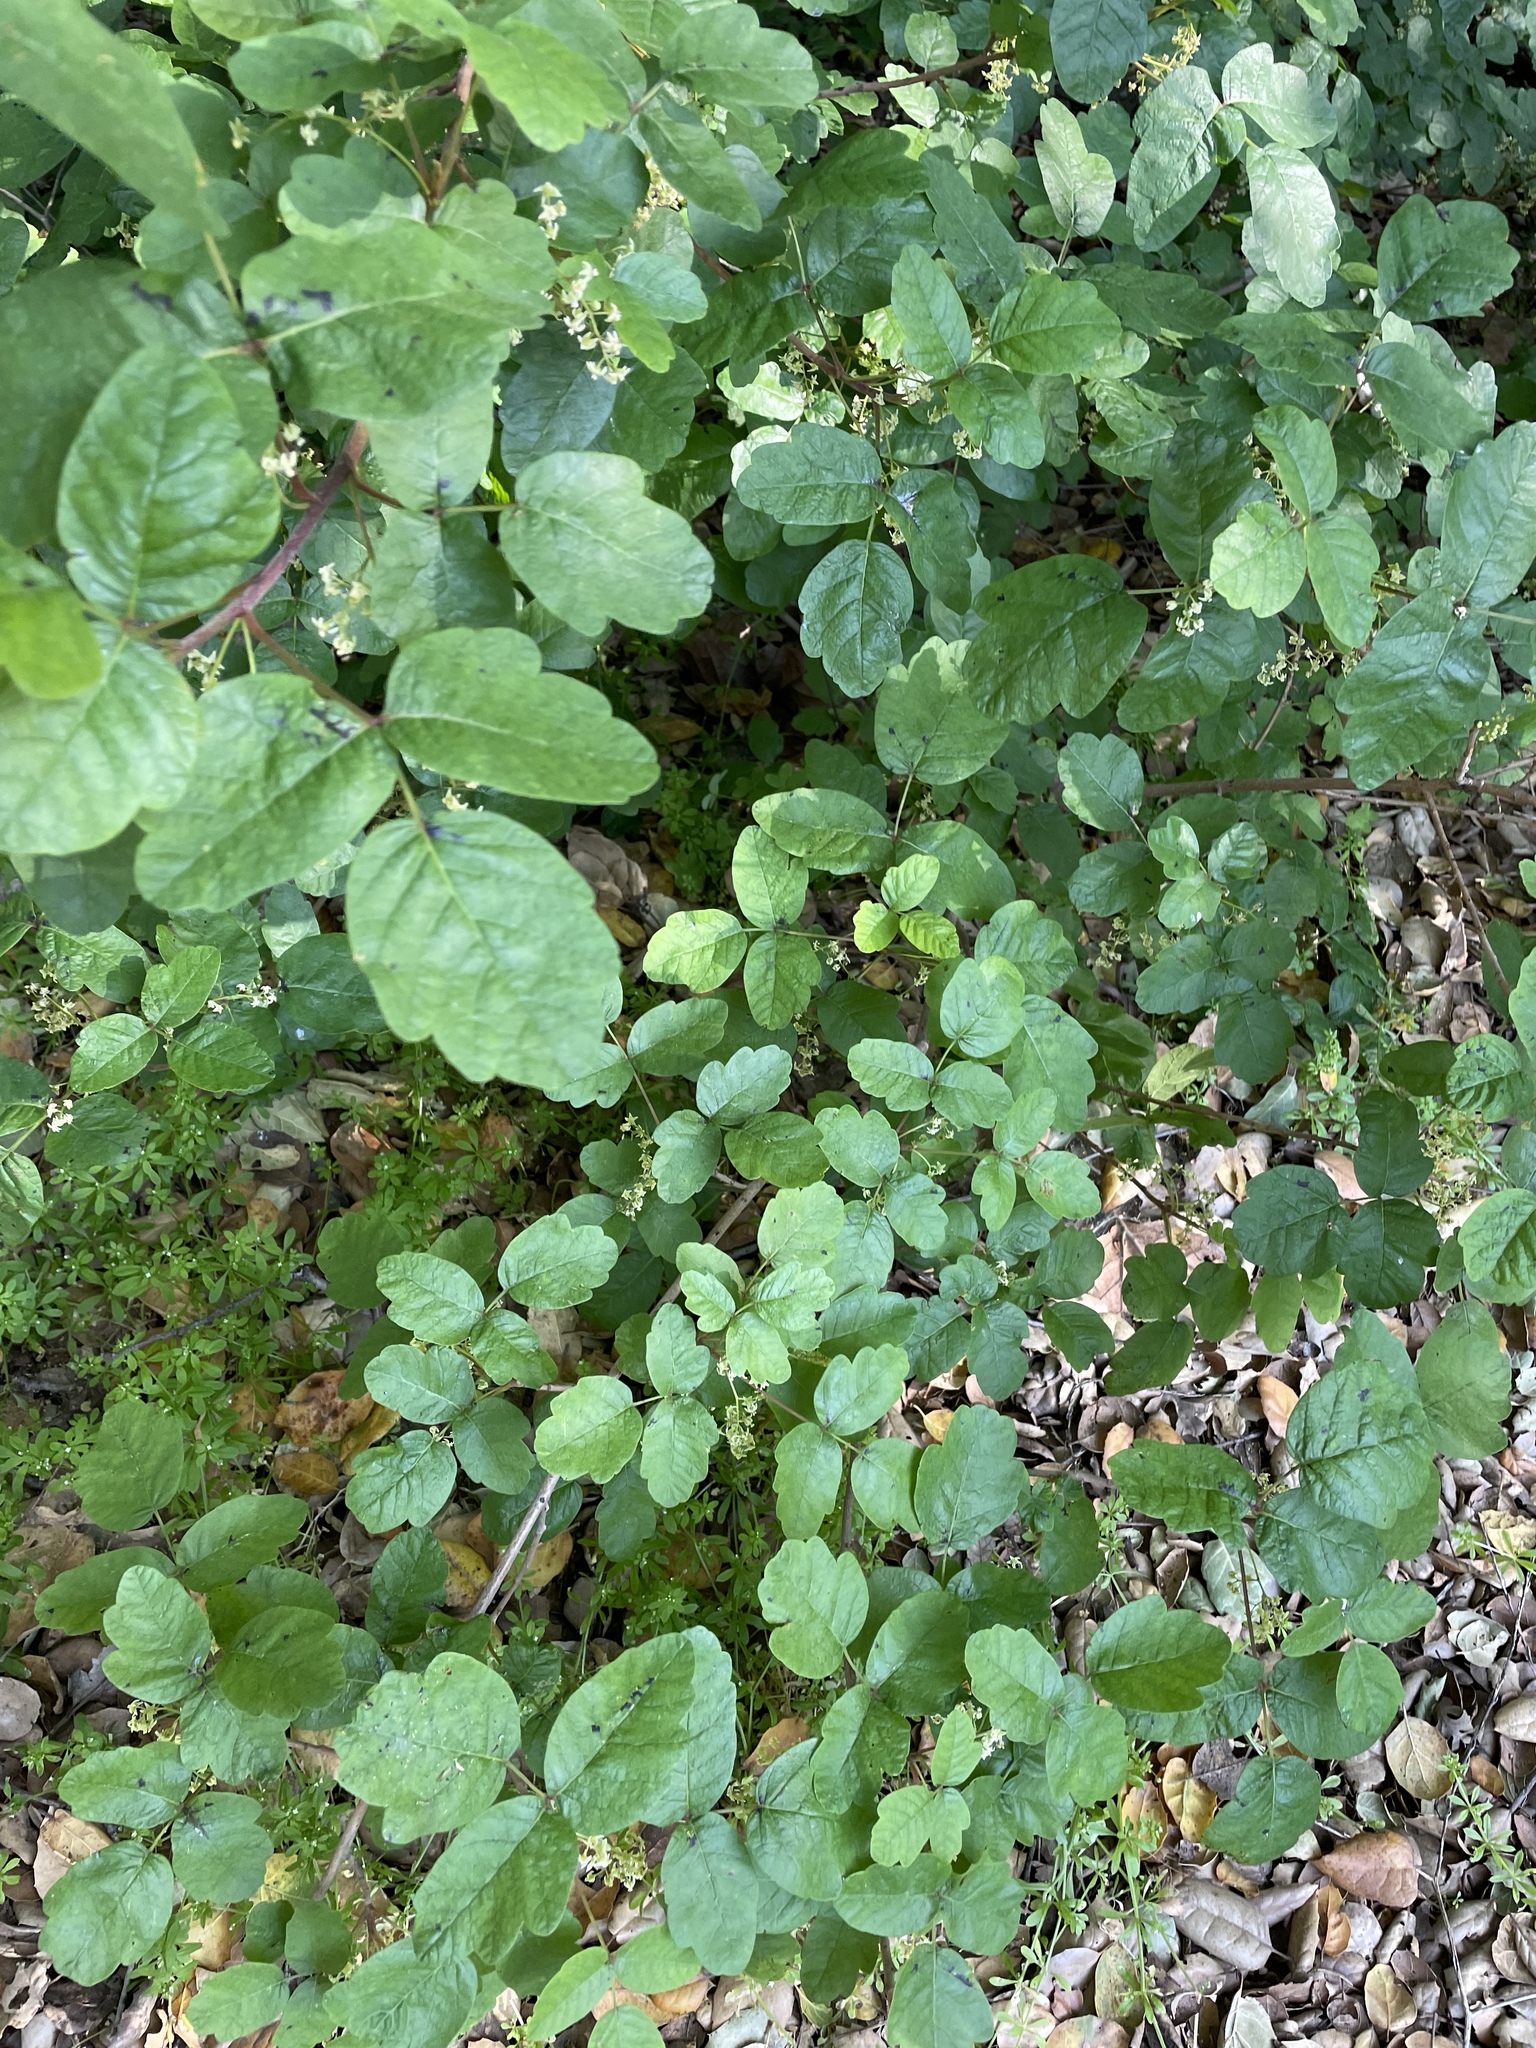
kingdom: Plantae
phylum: Tracheophyta
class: Magnoliopsida
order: Sapindales
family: Anacardiaceae
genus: Toxicodendron
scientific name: Toxicodendron diversilobum
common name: Pacific poison-oak
